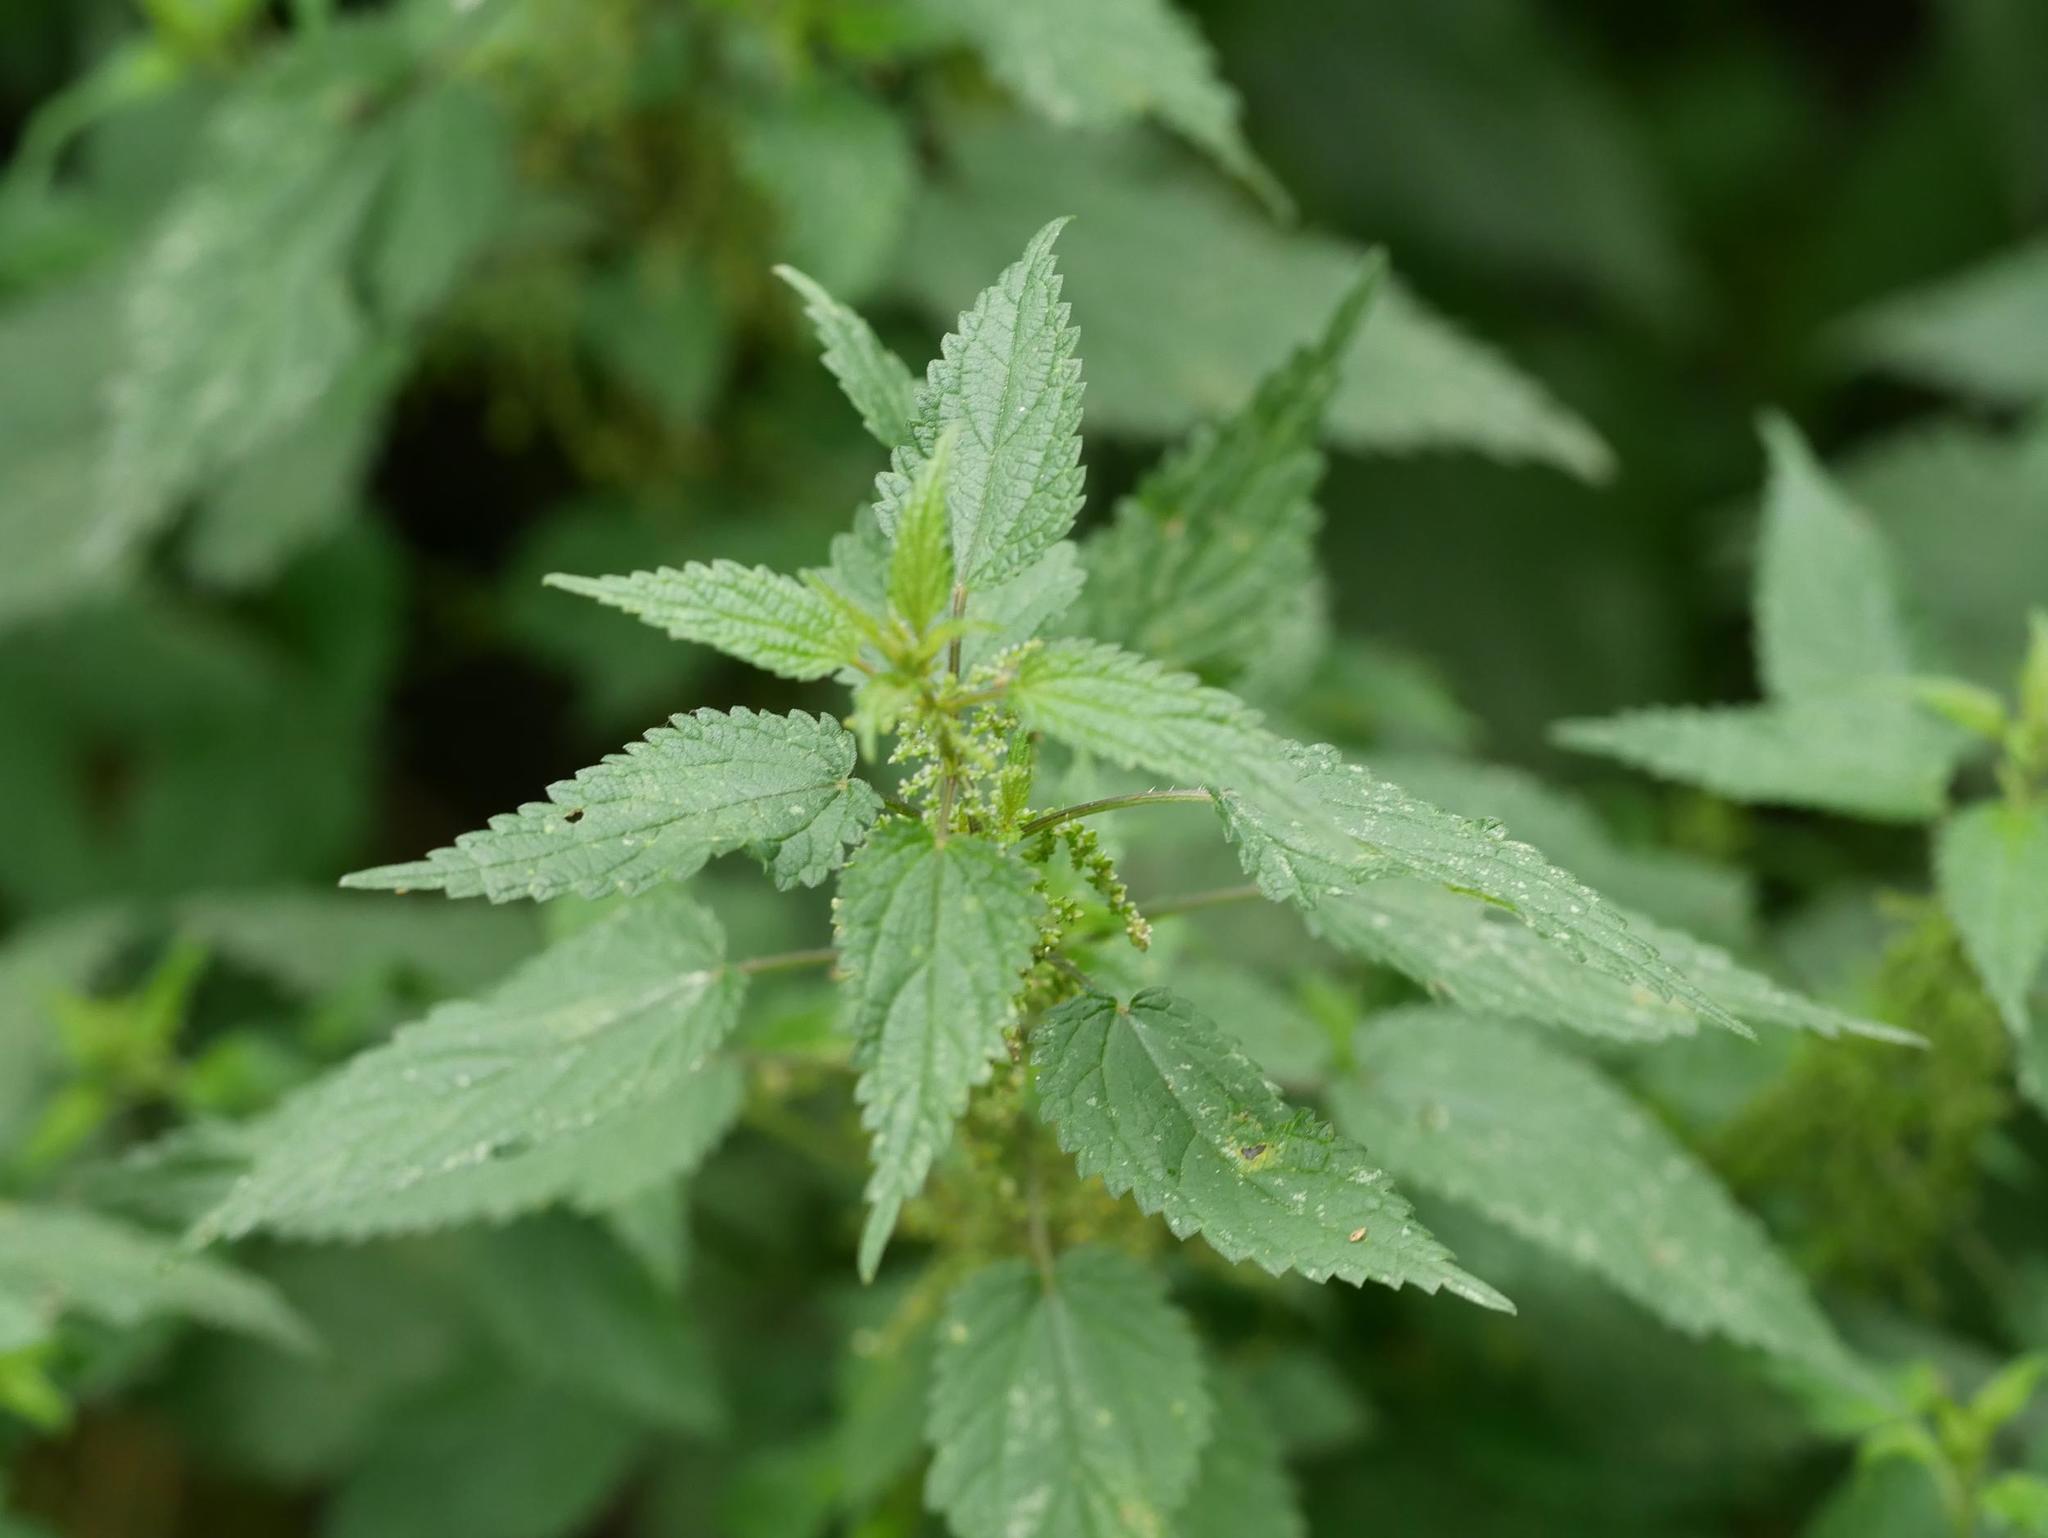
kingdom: Plantae
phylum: Tracheophyta
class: Magnoliopsida
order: Rosales
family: Urticaceae
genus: Urtica
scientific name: Urtica dioica
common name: Common nettle
